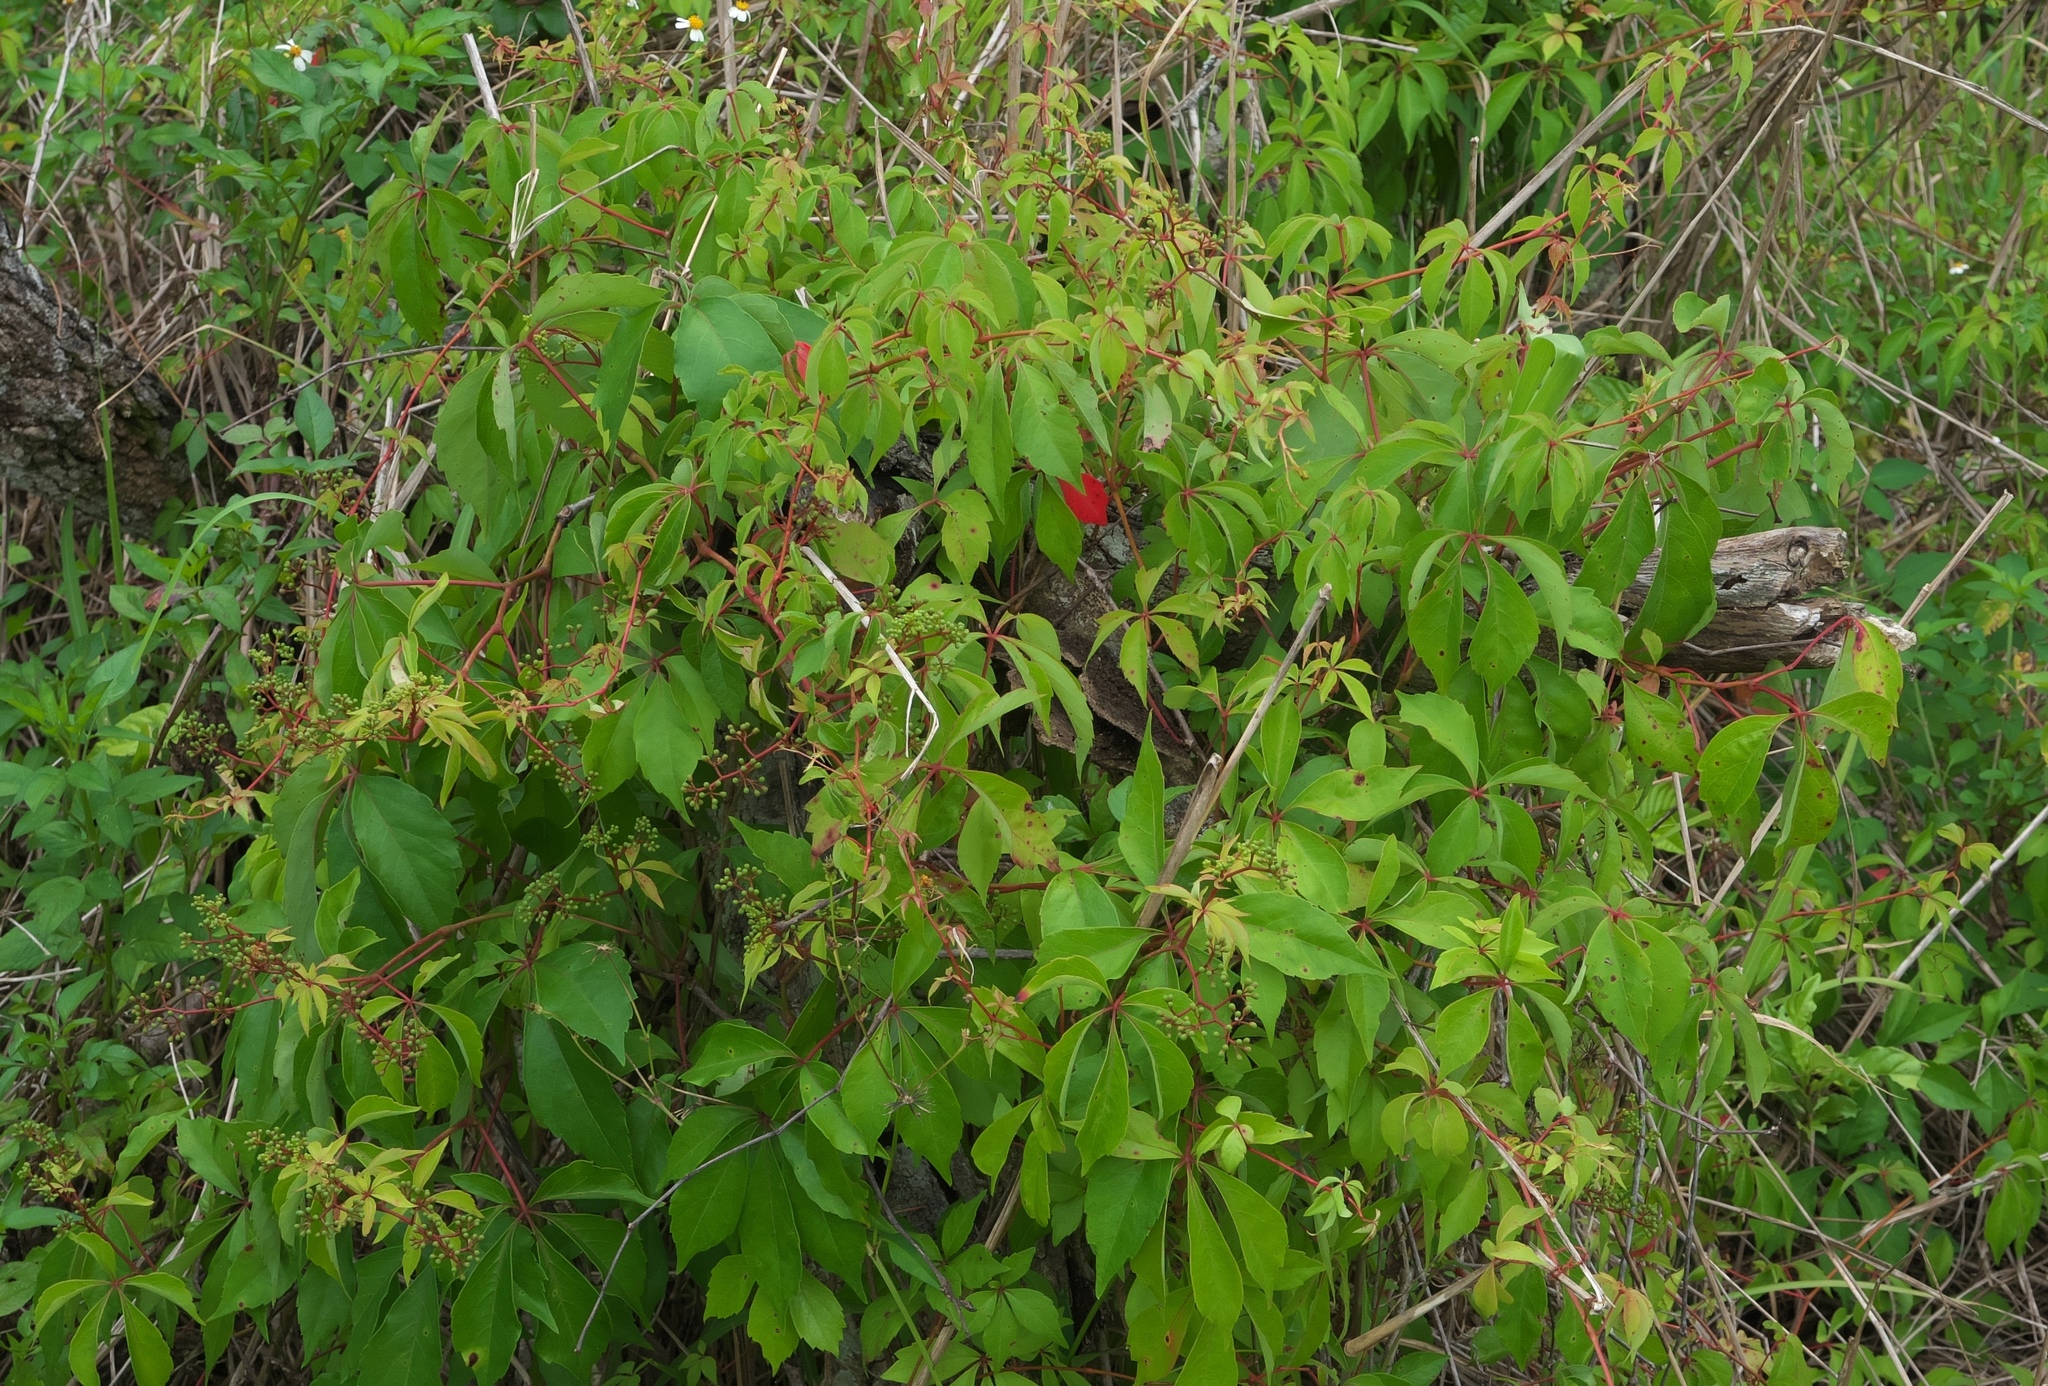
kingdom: Plantae
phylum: Tracheophyta
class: Magnoliopsida
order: Vitales
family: Vitaceae
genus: Parthenocissus
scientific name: Parthenocissus quinquefolia
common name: Virginia-creeper
